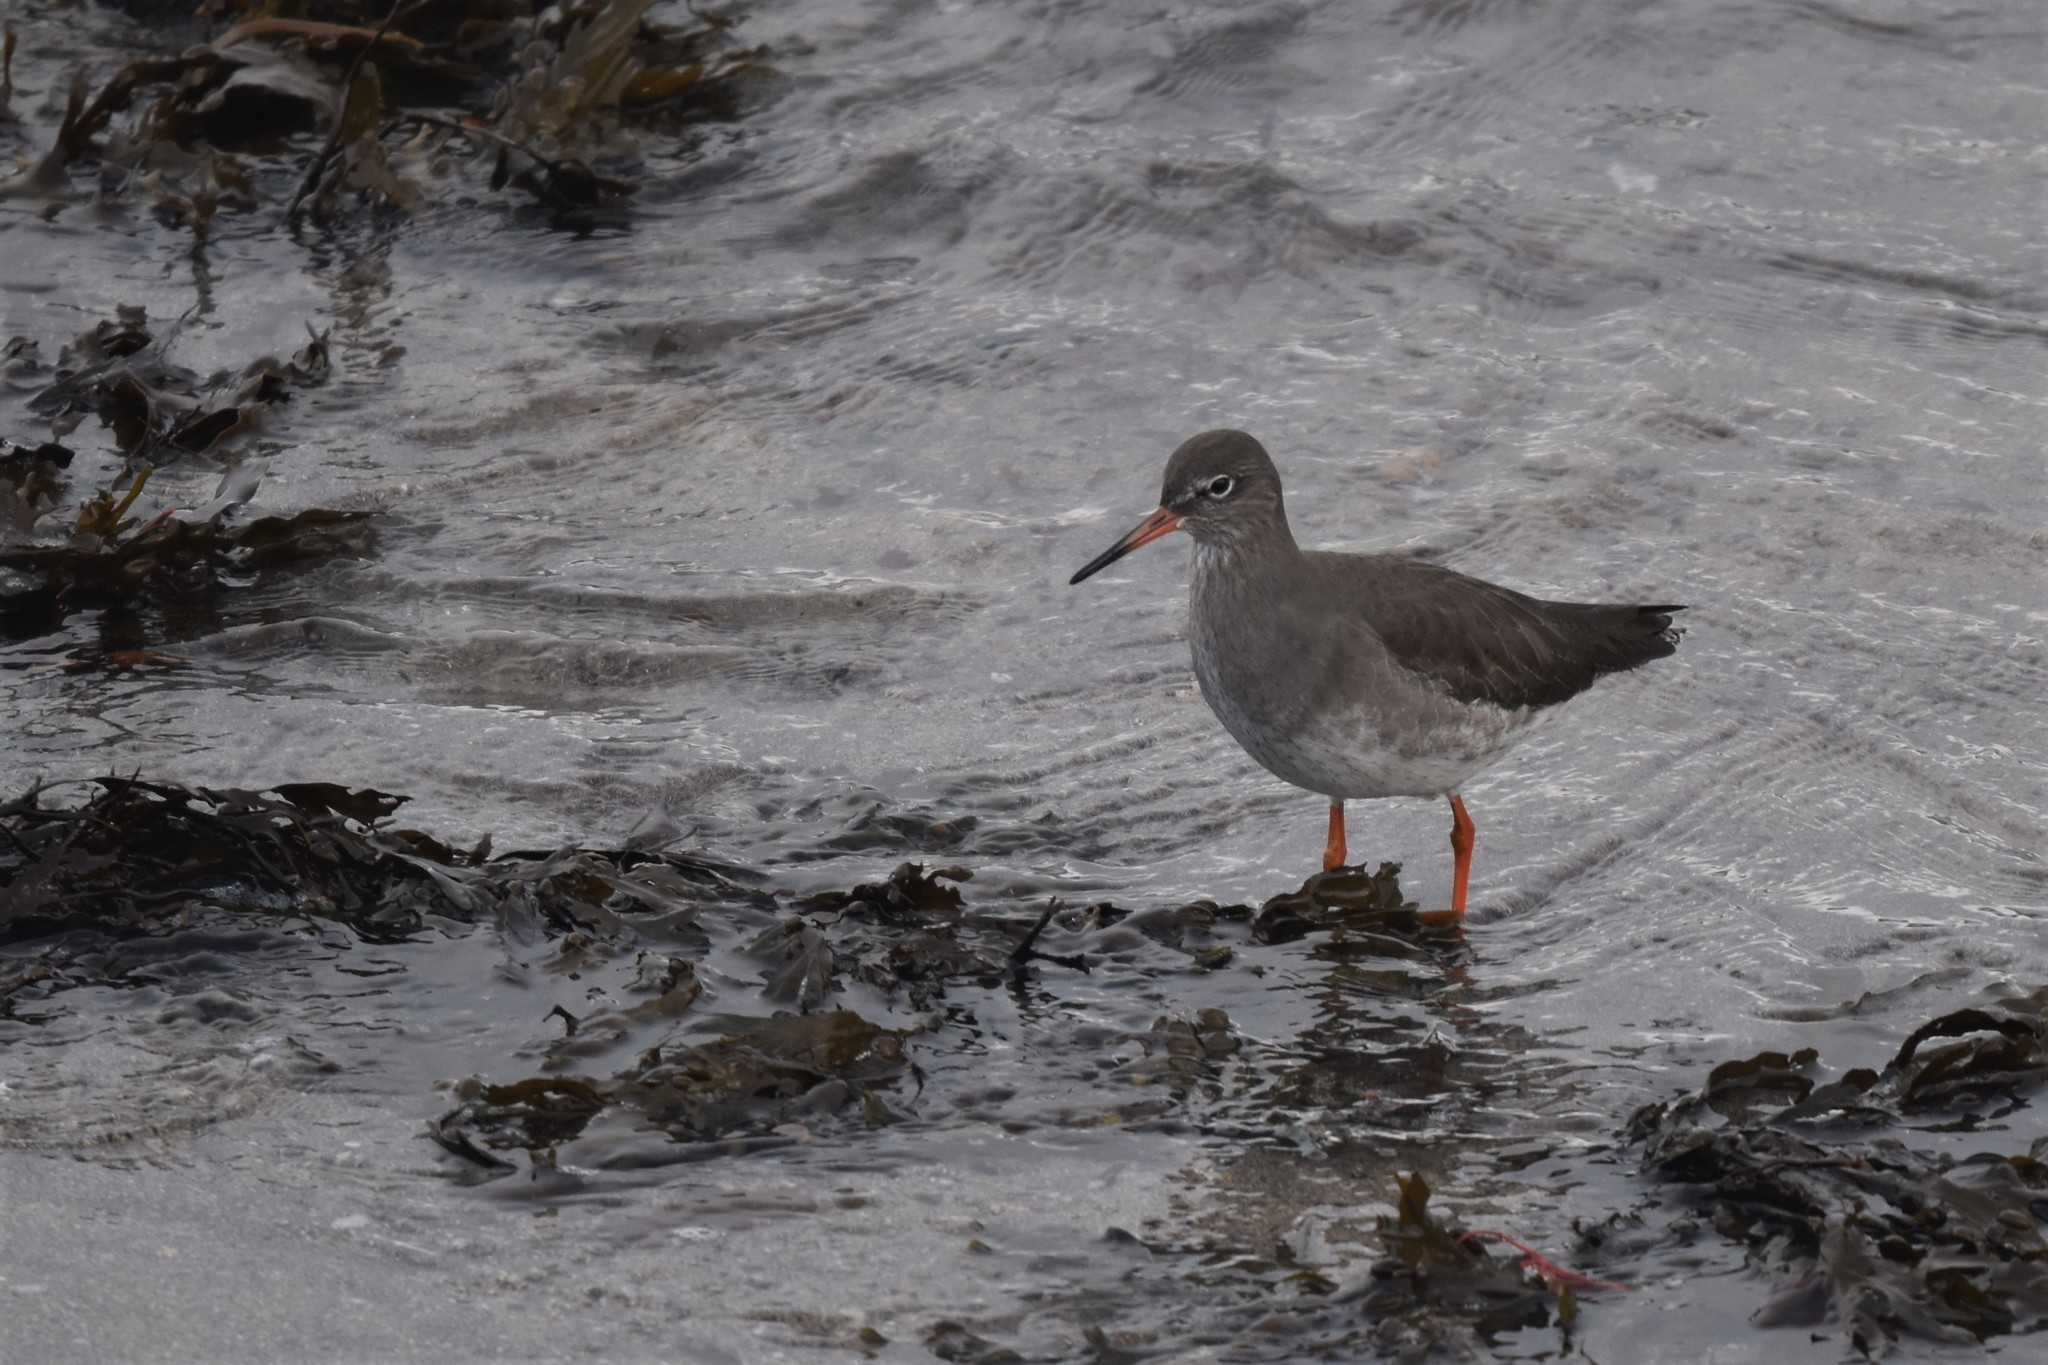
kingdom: Animalia
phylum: Chordata
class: Aves
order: Charadriiformes
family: Scolopacidae
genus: Tringa
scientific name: Tringa totanus
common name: Common redshank
